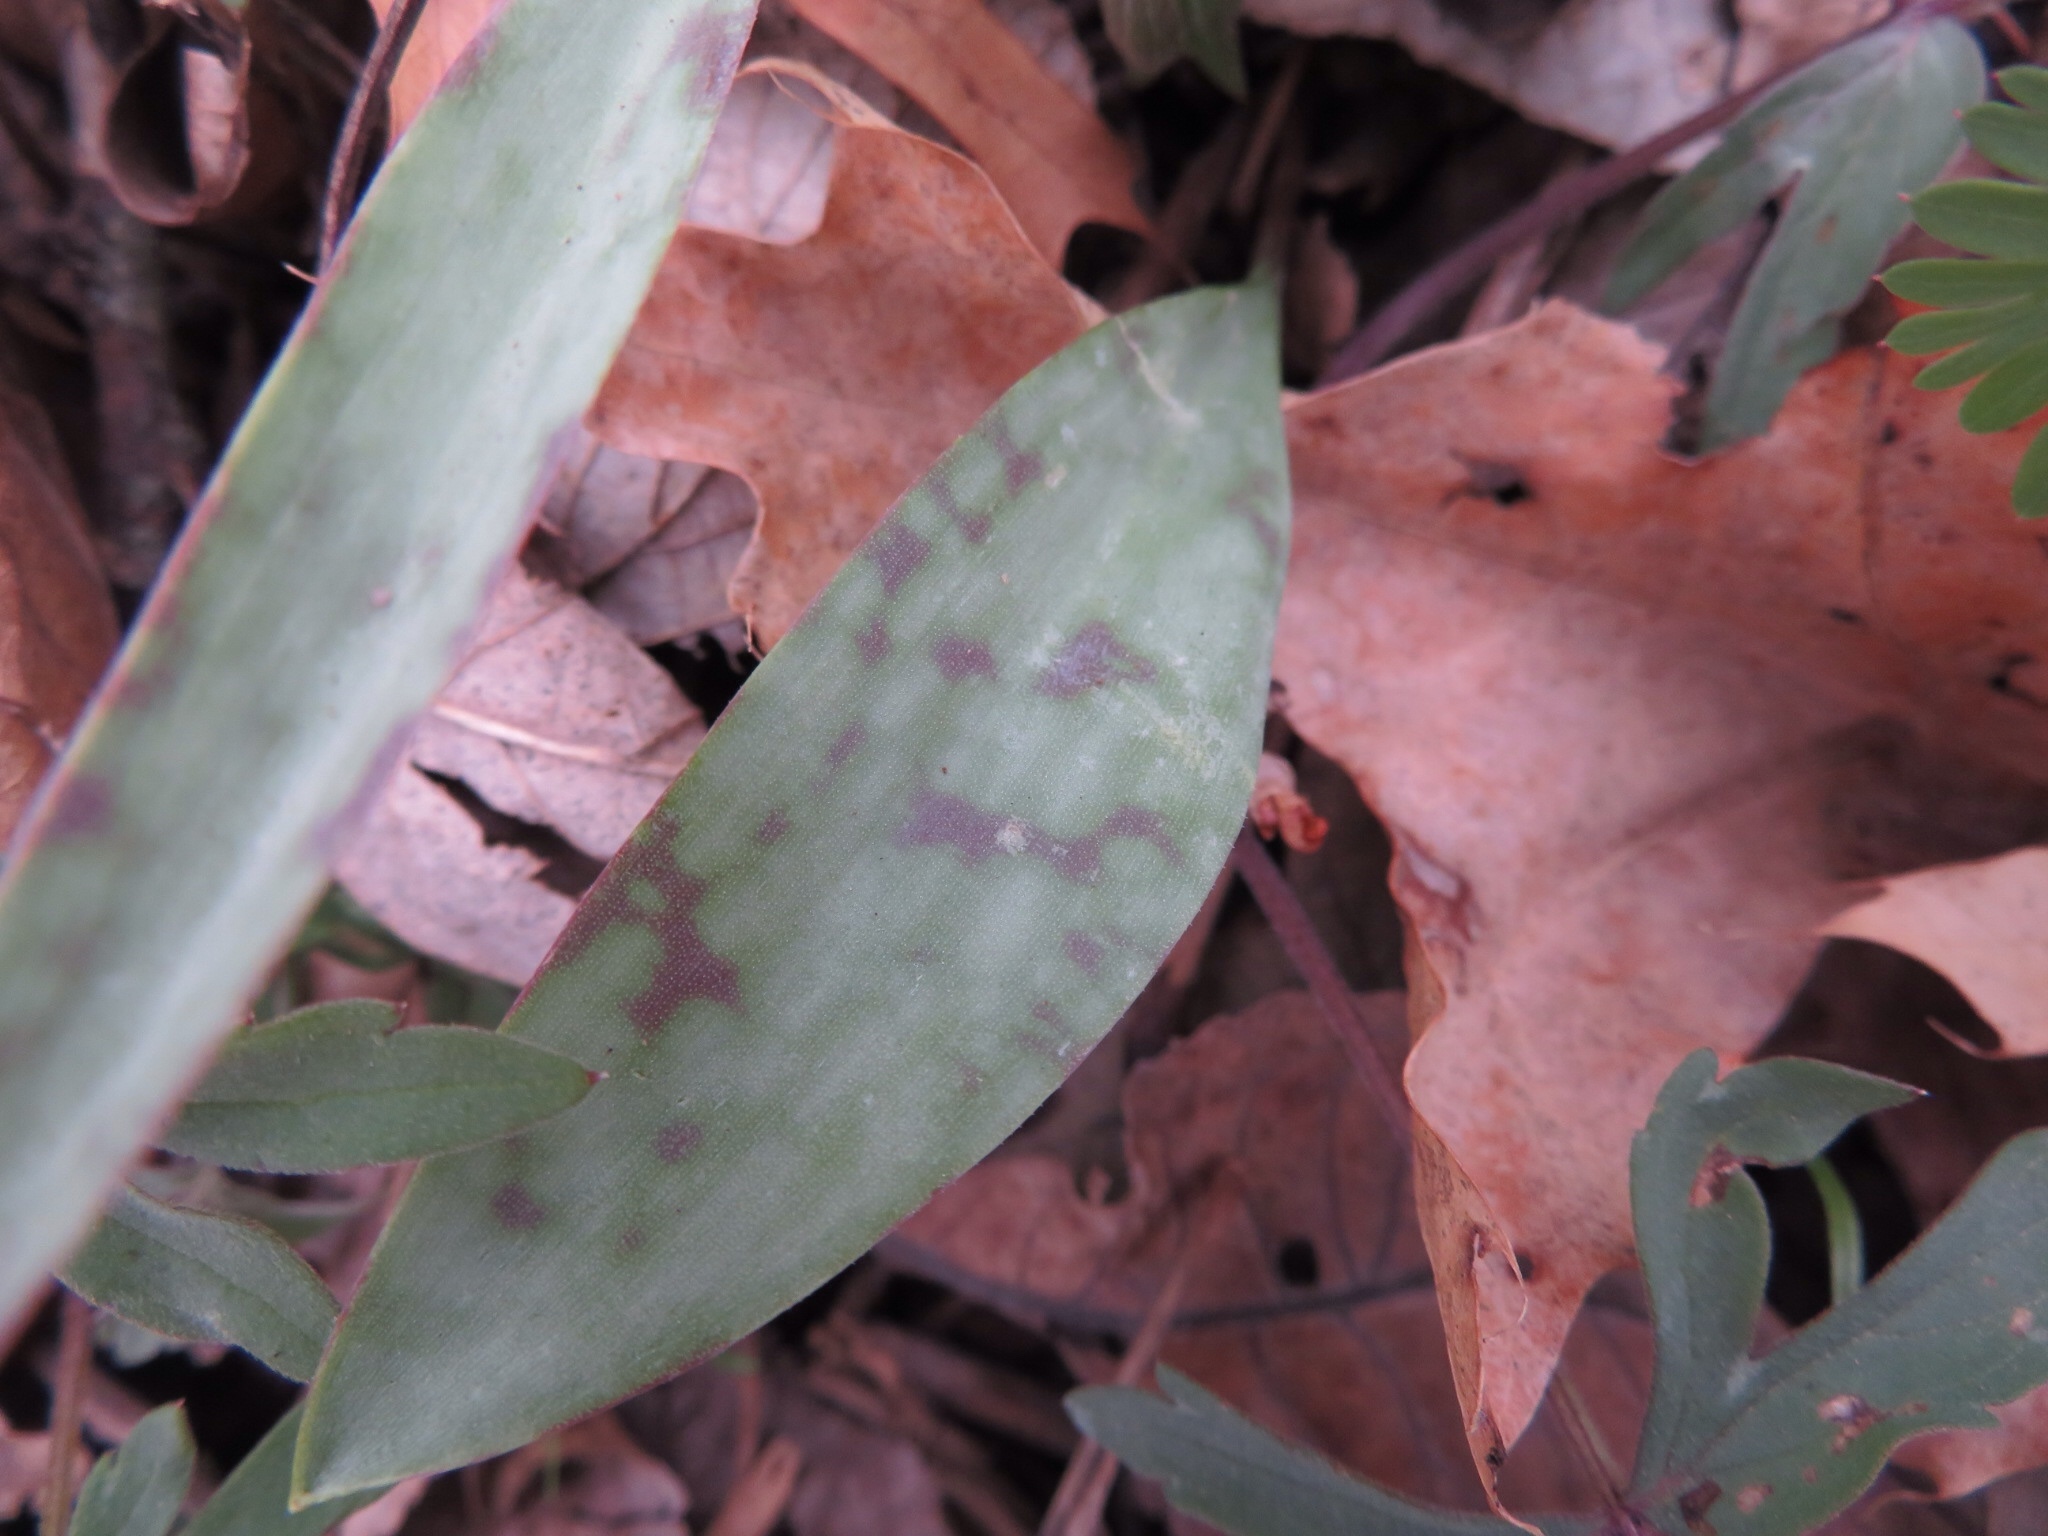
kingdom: Plantae
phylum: Tracheophyta
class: Liliopsida
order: Liliales
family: Liliaceae
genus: Erythronium
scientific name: Erythronium albidum
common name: White trout-lily
